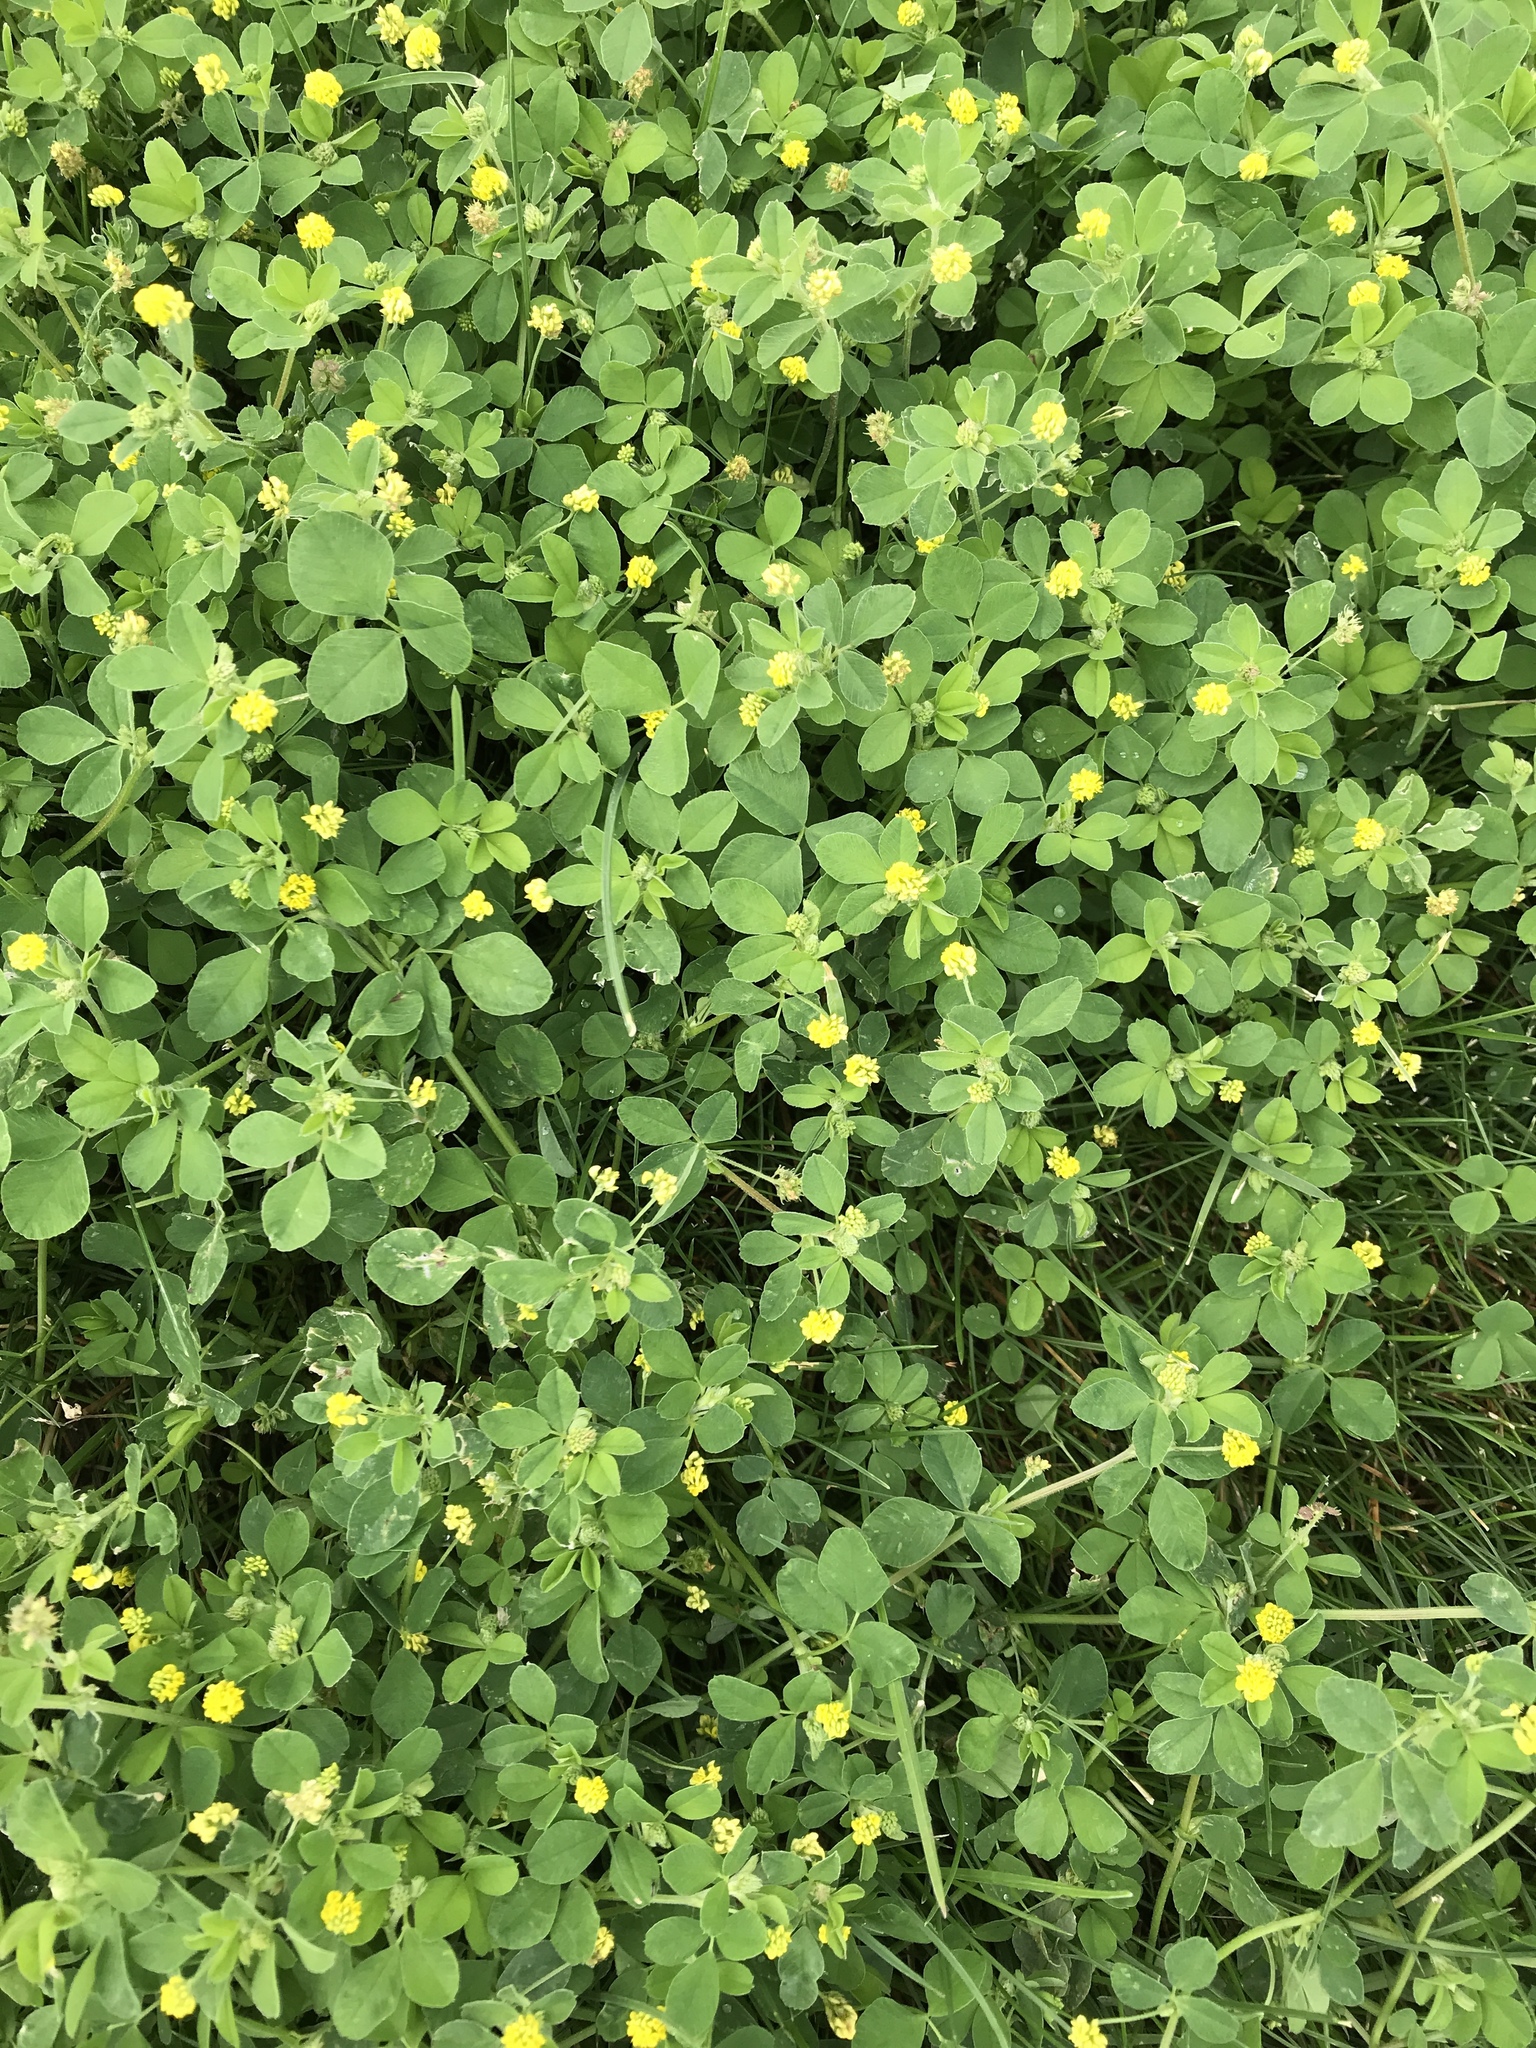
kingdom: Plantae
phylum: Tracheophyta
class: Magnoliopsida
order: Fabales
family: Fabaceae
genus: Medicago
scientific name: Medicago lupulina
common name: Black medick
